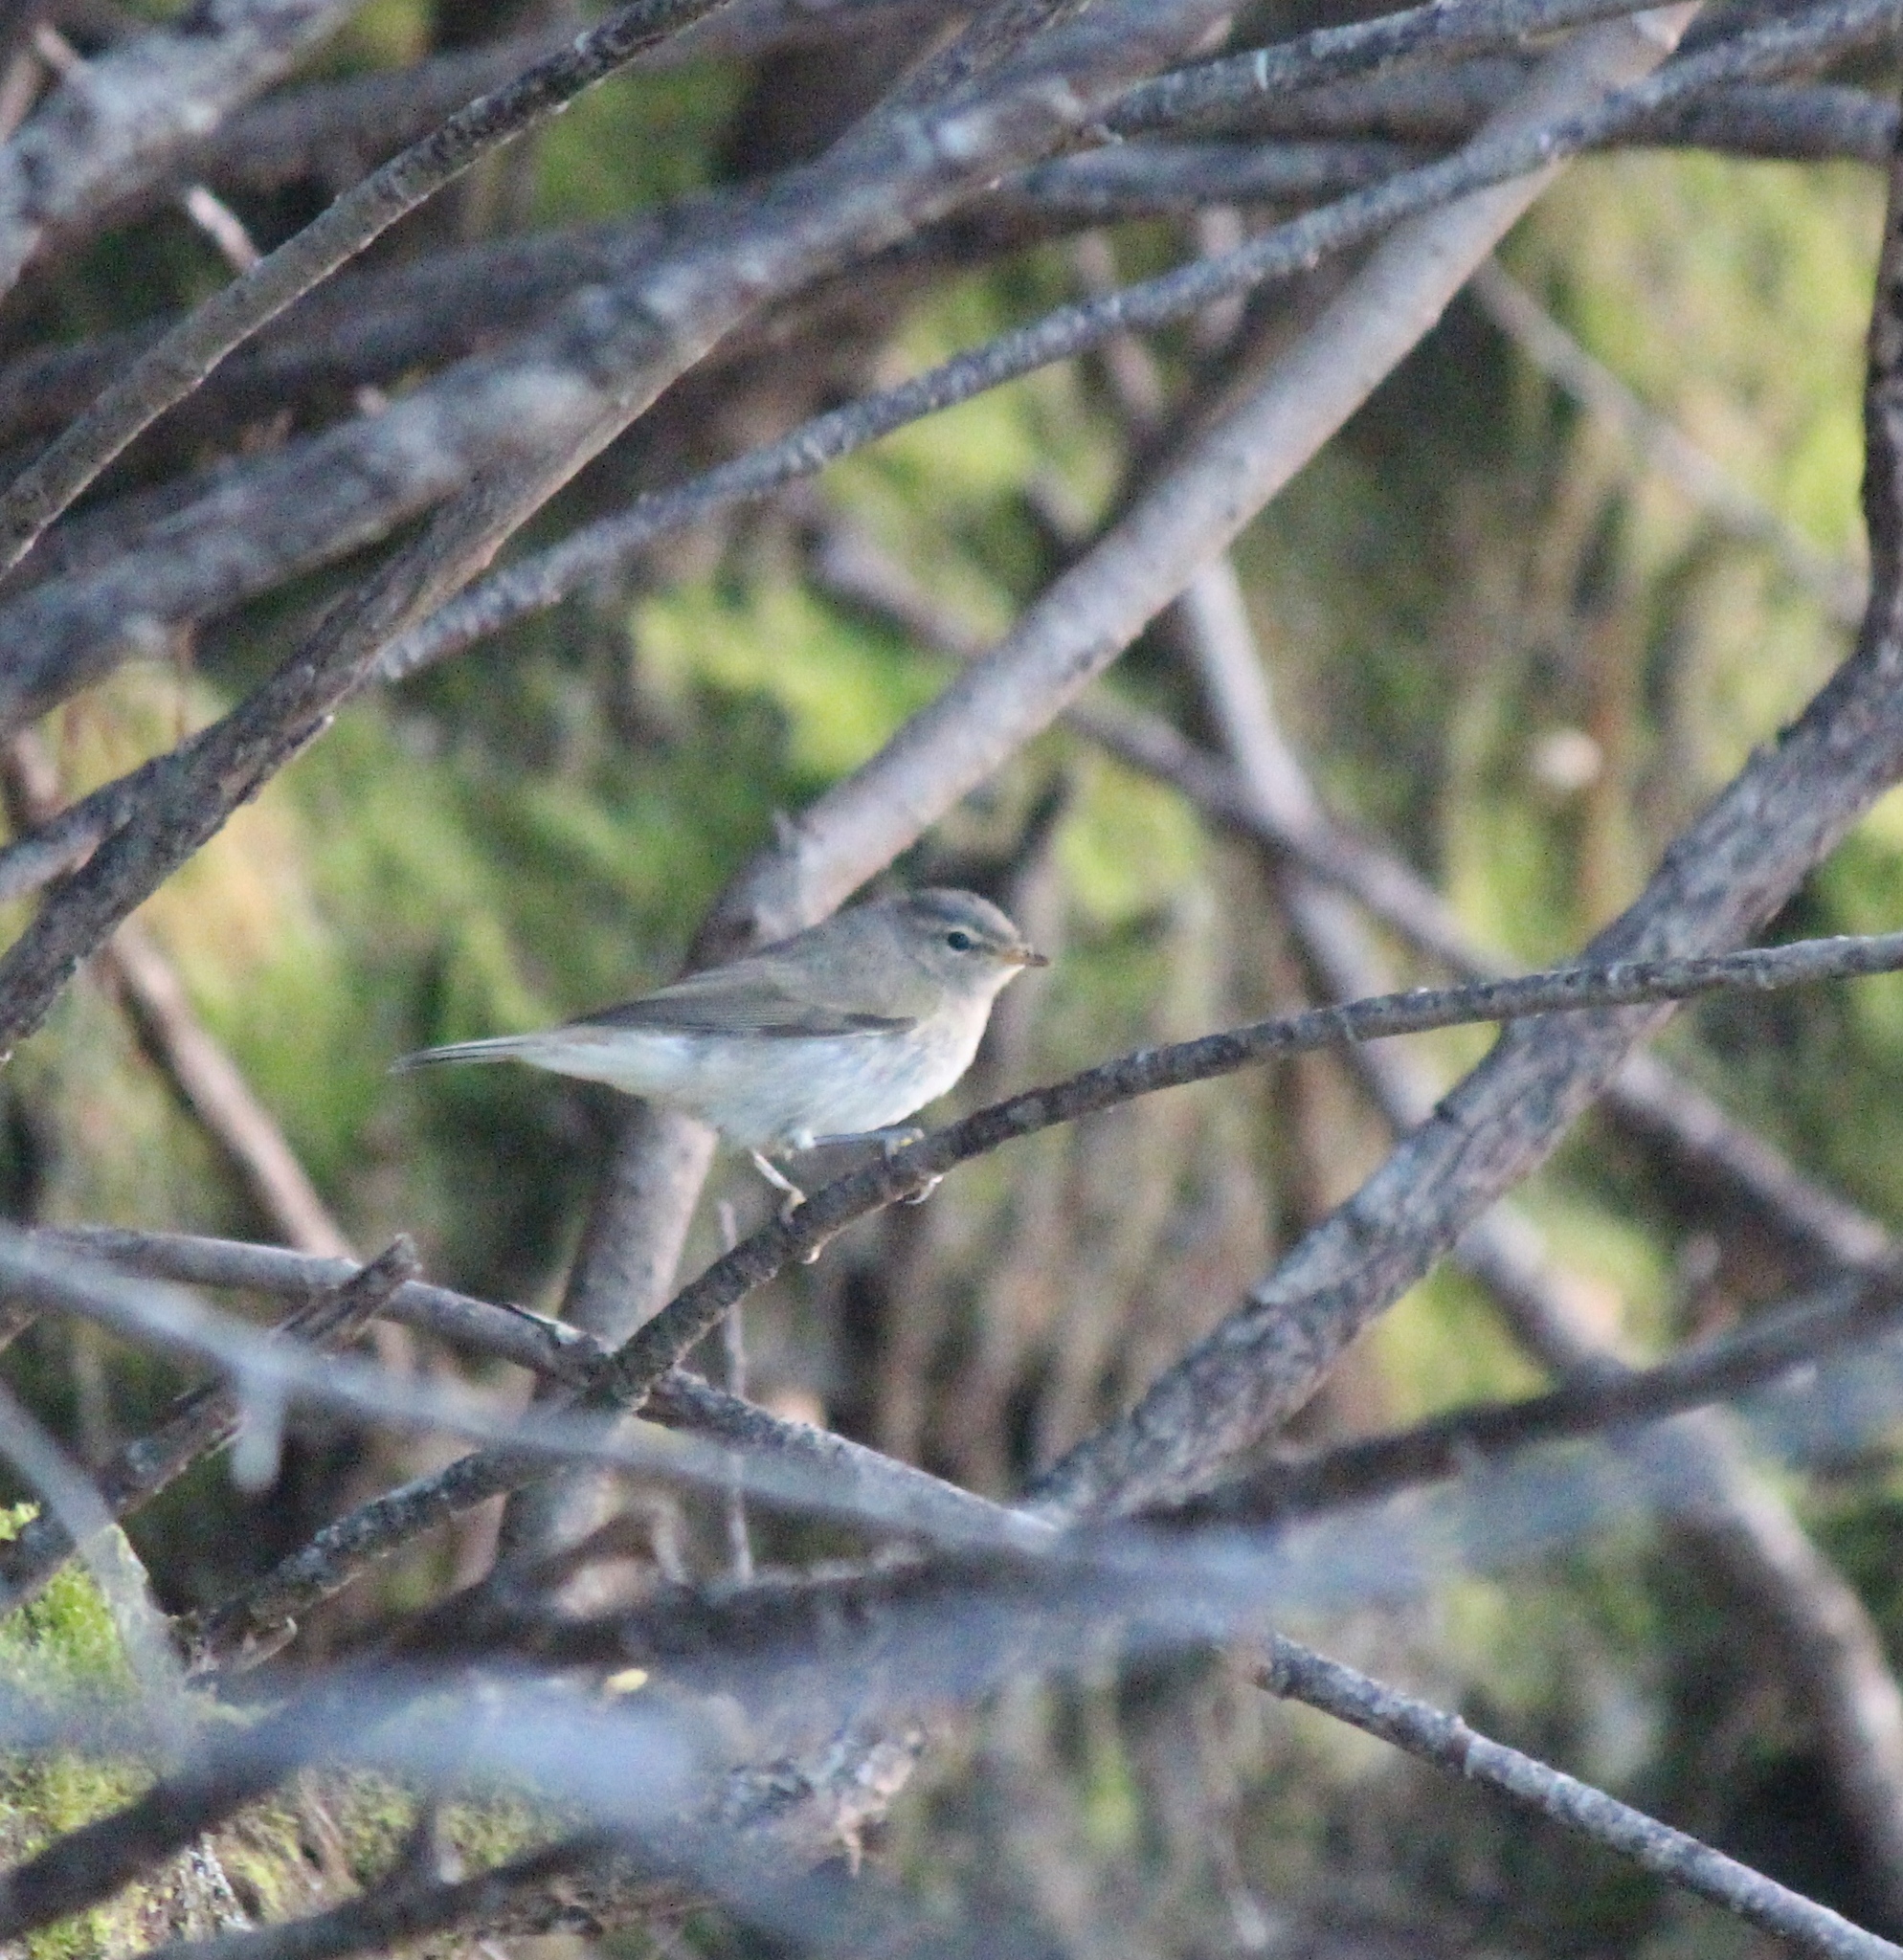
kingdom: Animalia
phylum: Chordata
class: Aves
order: Passeriformes
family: Phylloscopidae
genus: Phylloscopus
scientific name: Phylloscopus collybita
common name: Common chiffchaff
